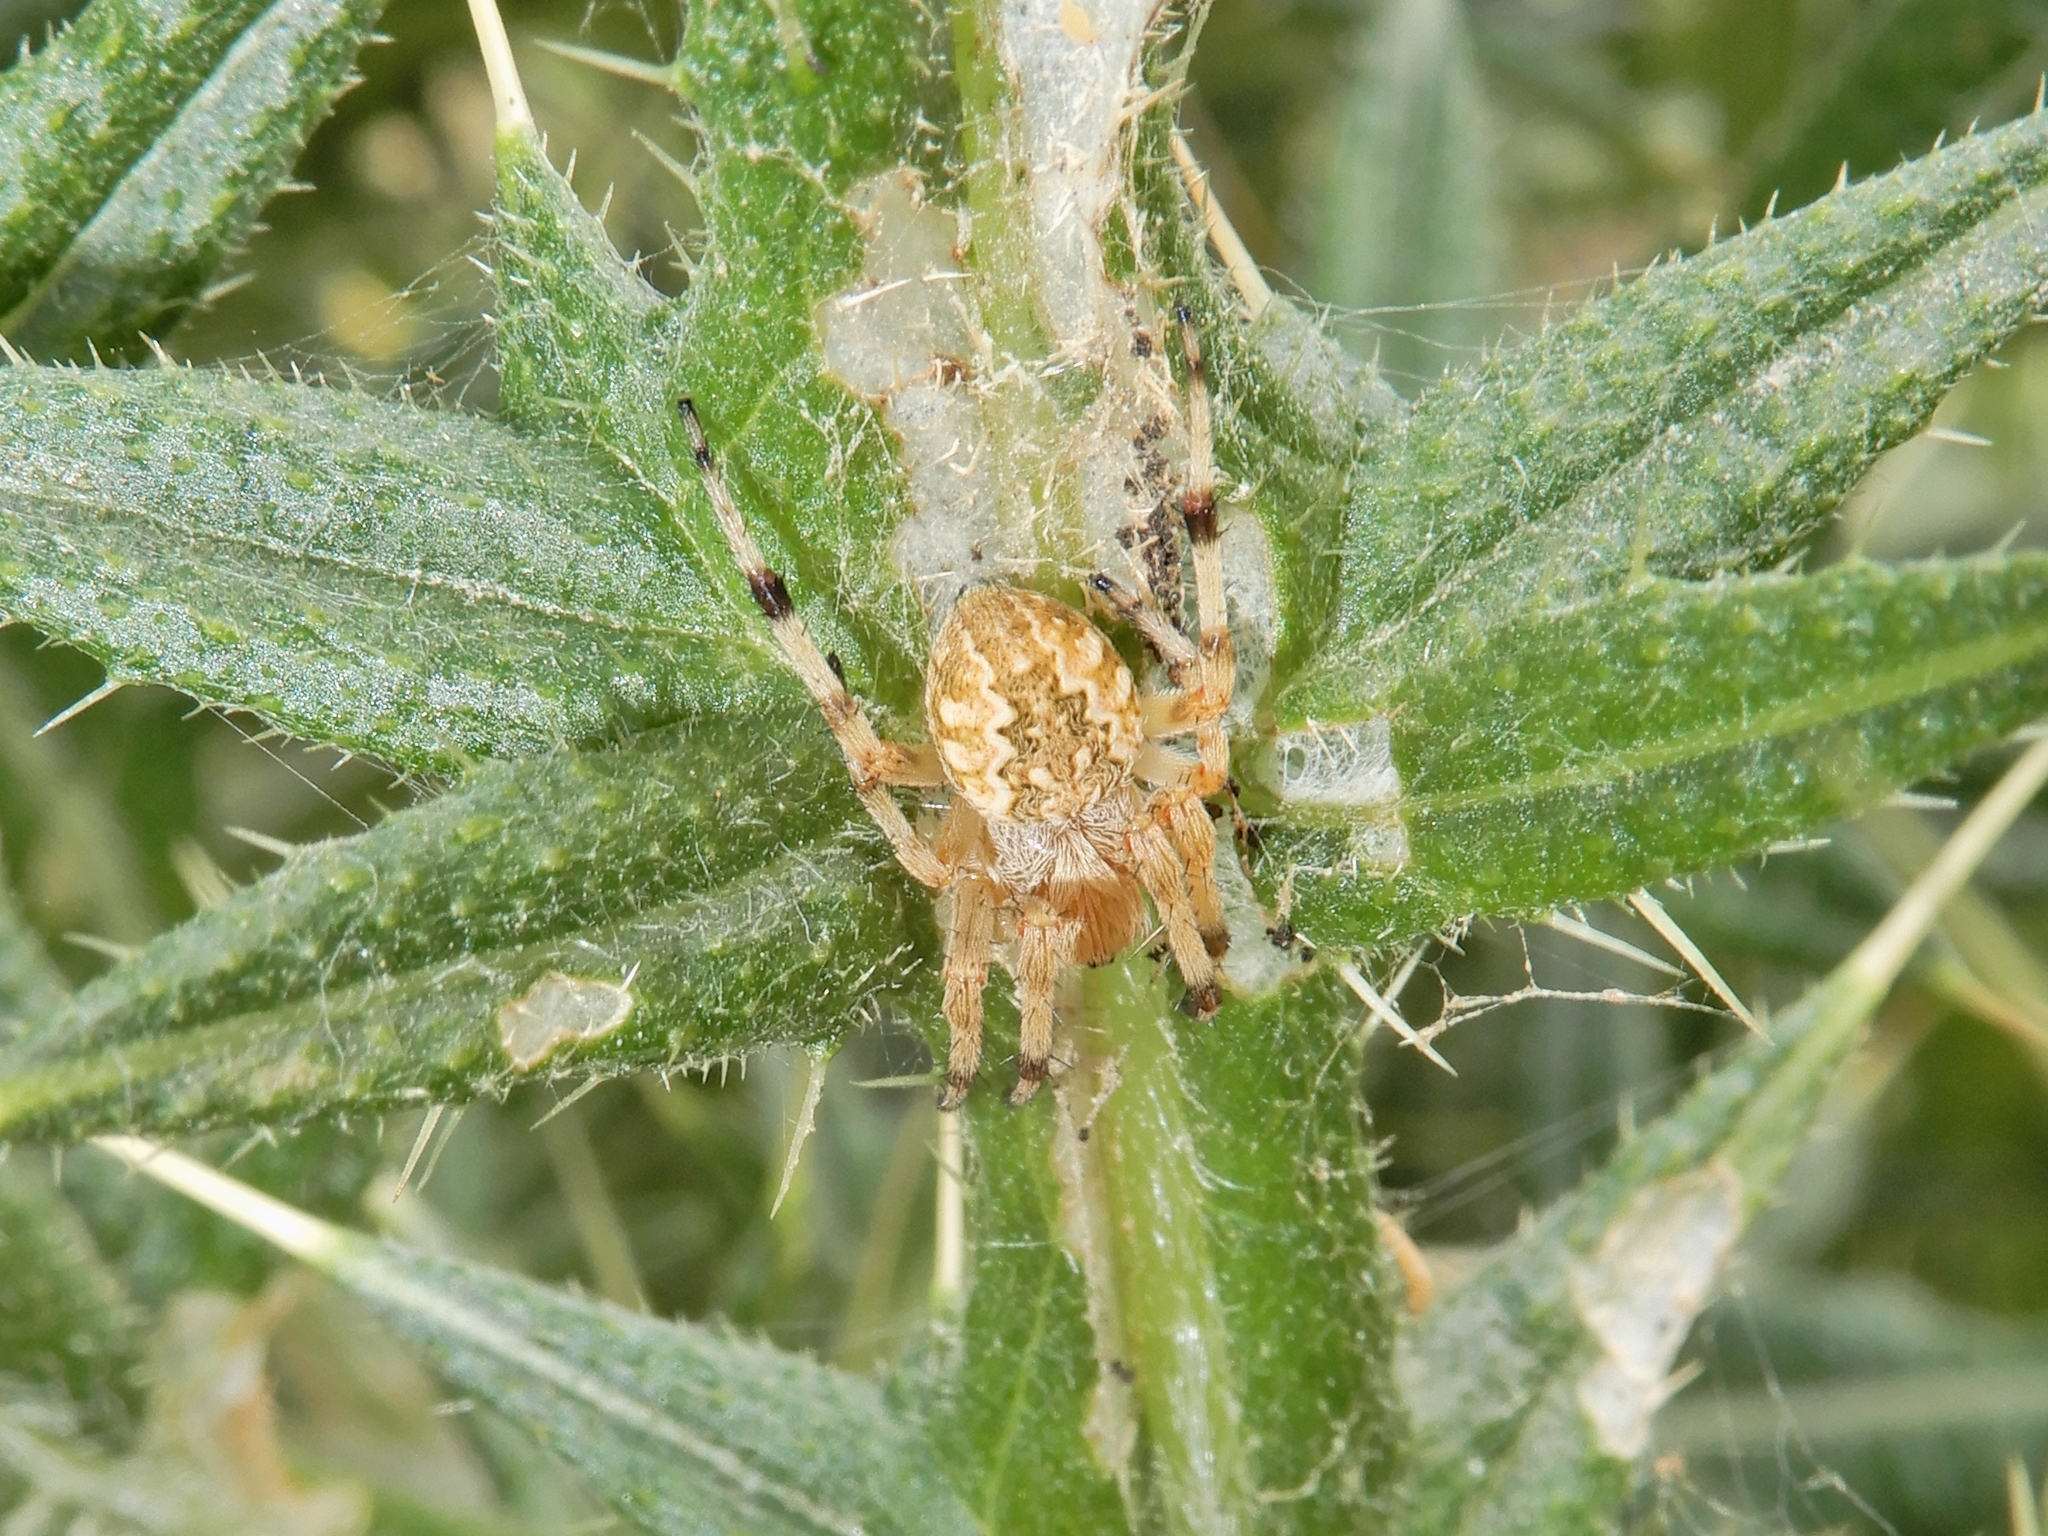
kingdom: Animalia
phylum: Arthropoda
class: Arachnida
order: Araneae
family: Araneidae
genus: Salsa
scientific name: Salsa fuliginata
